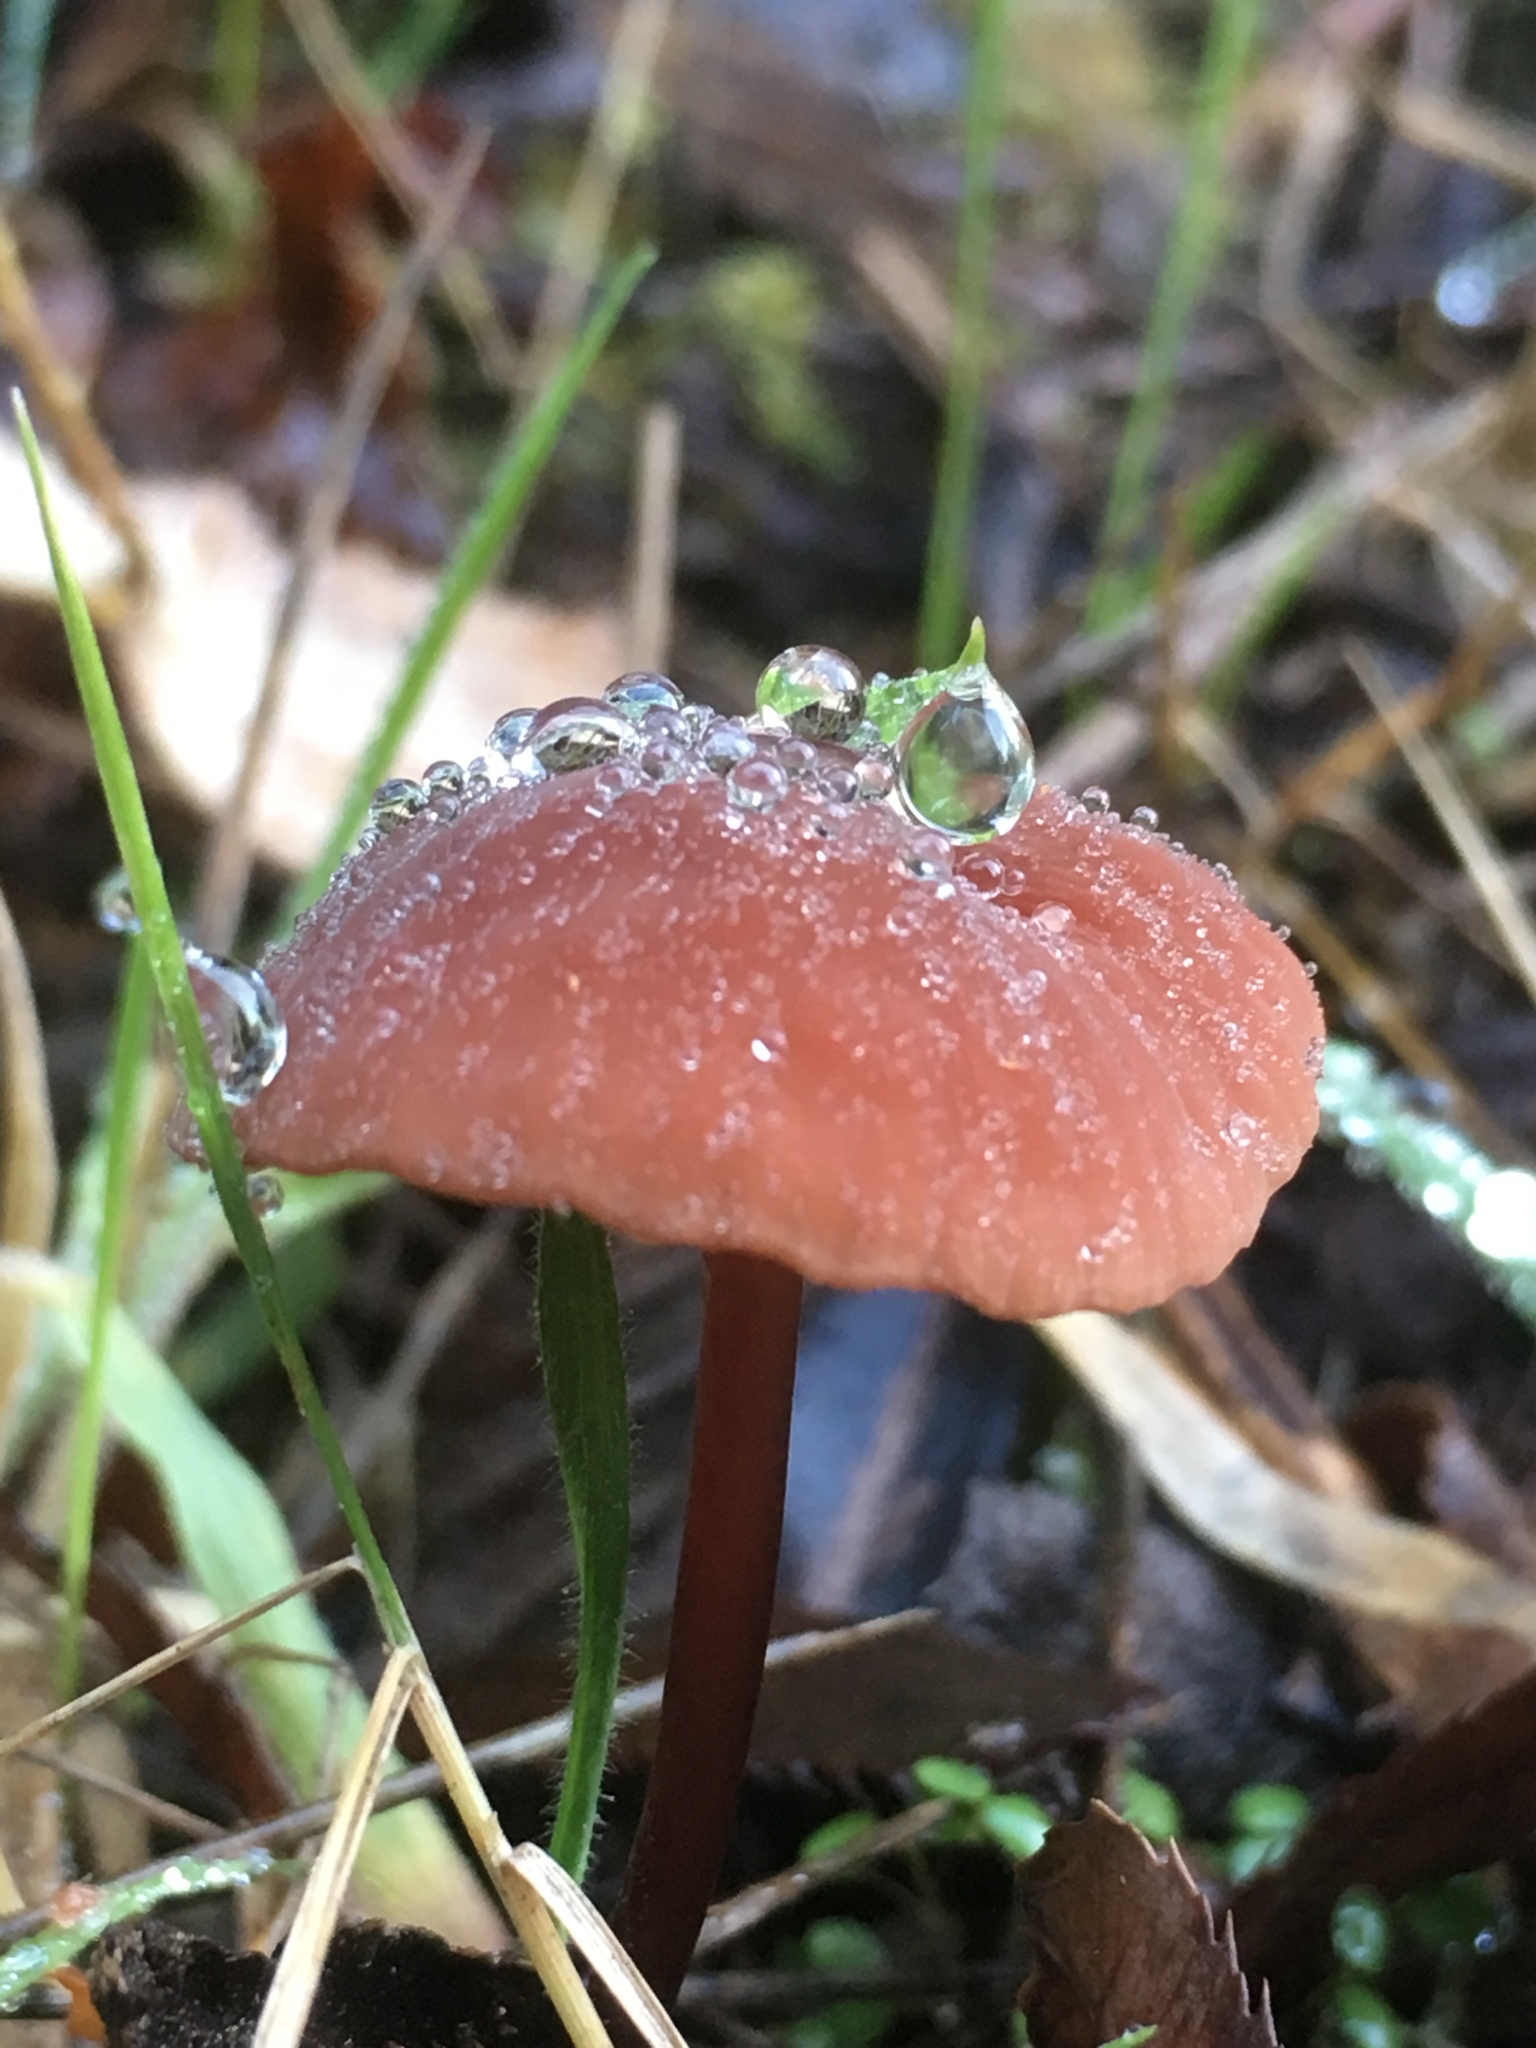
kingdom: Fungi
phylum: Basidiomycota
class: Agaricomycetes
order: Agaricales
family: Marasmiaceae
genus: Marasmius
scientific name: Marasmius plicatulus
